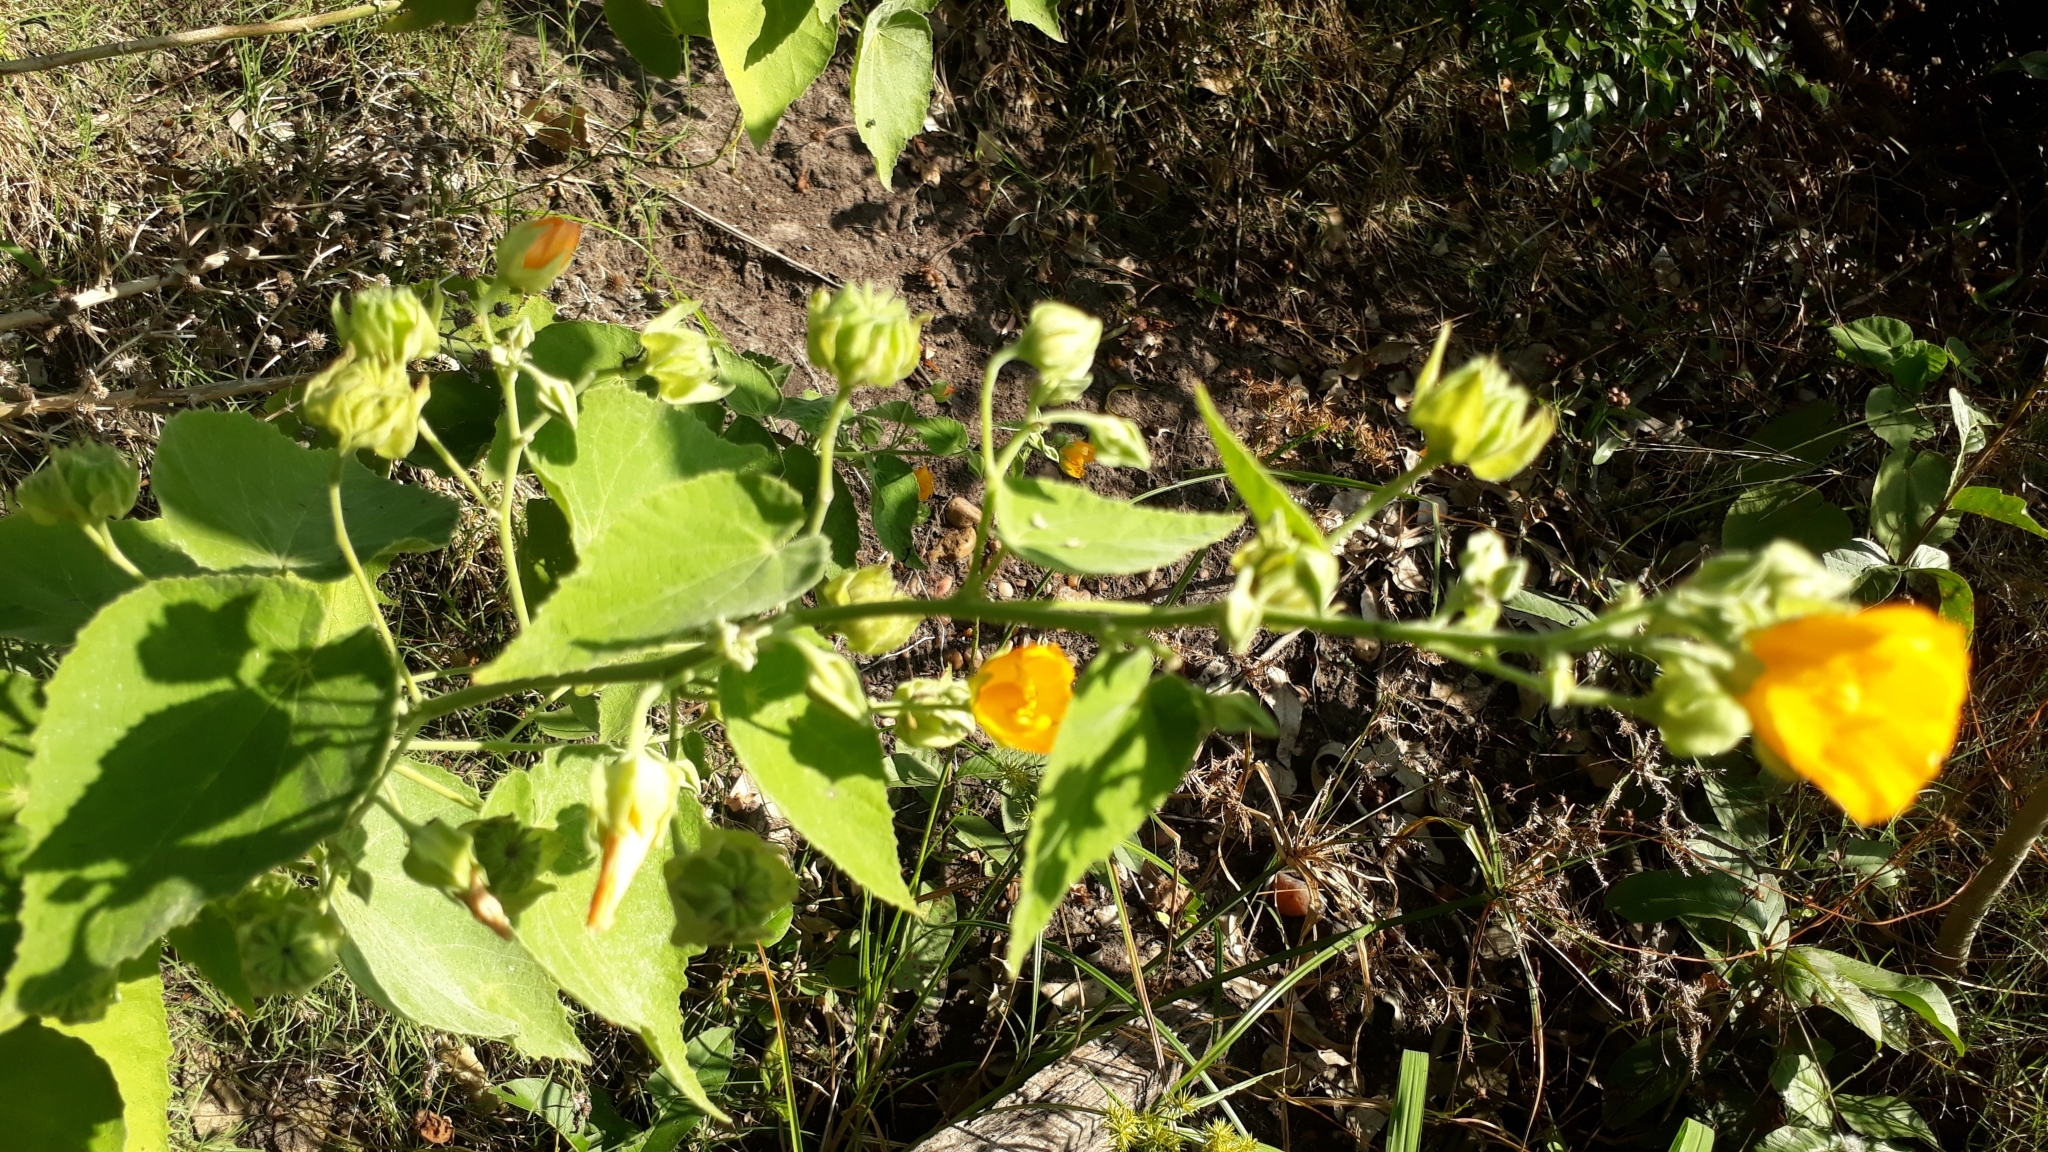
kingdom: Plantae
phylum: Tracheophyta
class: Magnoliopsida
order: Malvales
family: Malvaceae
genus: Abutilon
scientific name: Abutilon umbelliflorum
